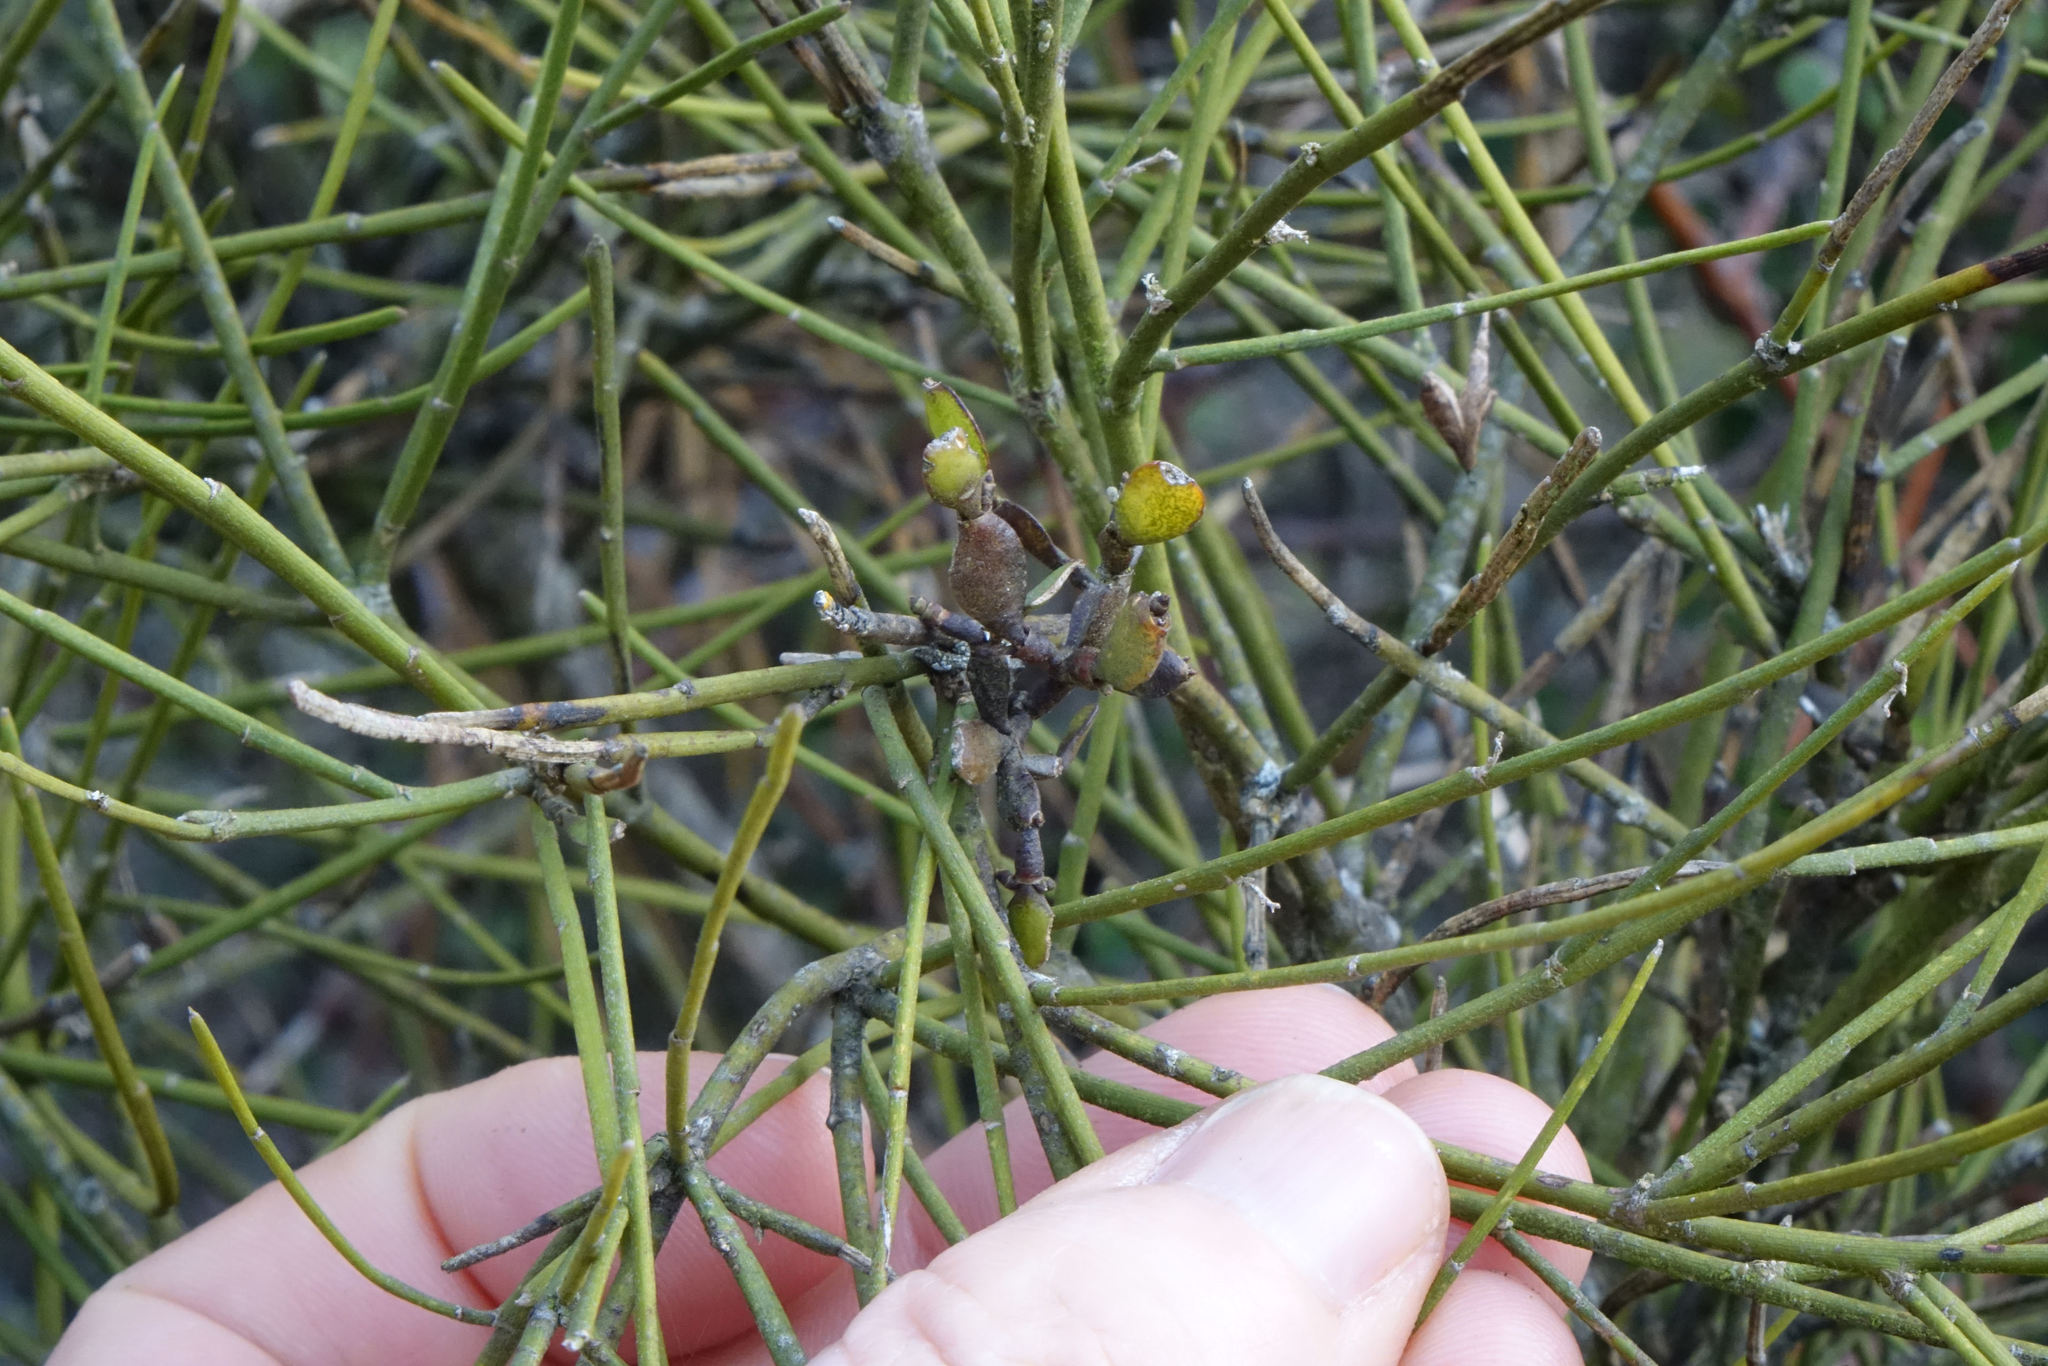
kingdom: Plantae
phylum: Tracheophyta
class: Magnoliopsida
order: Santalales
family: Viscaceae
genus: Korthalsella
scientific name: Korthalsella lindsayi
